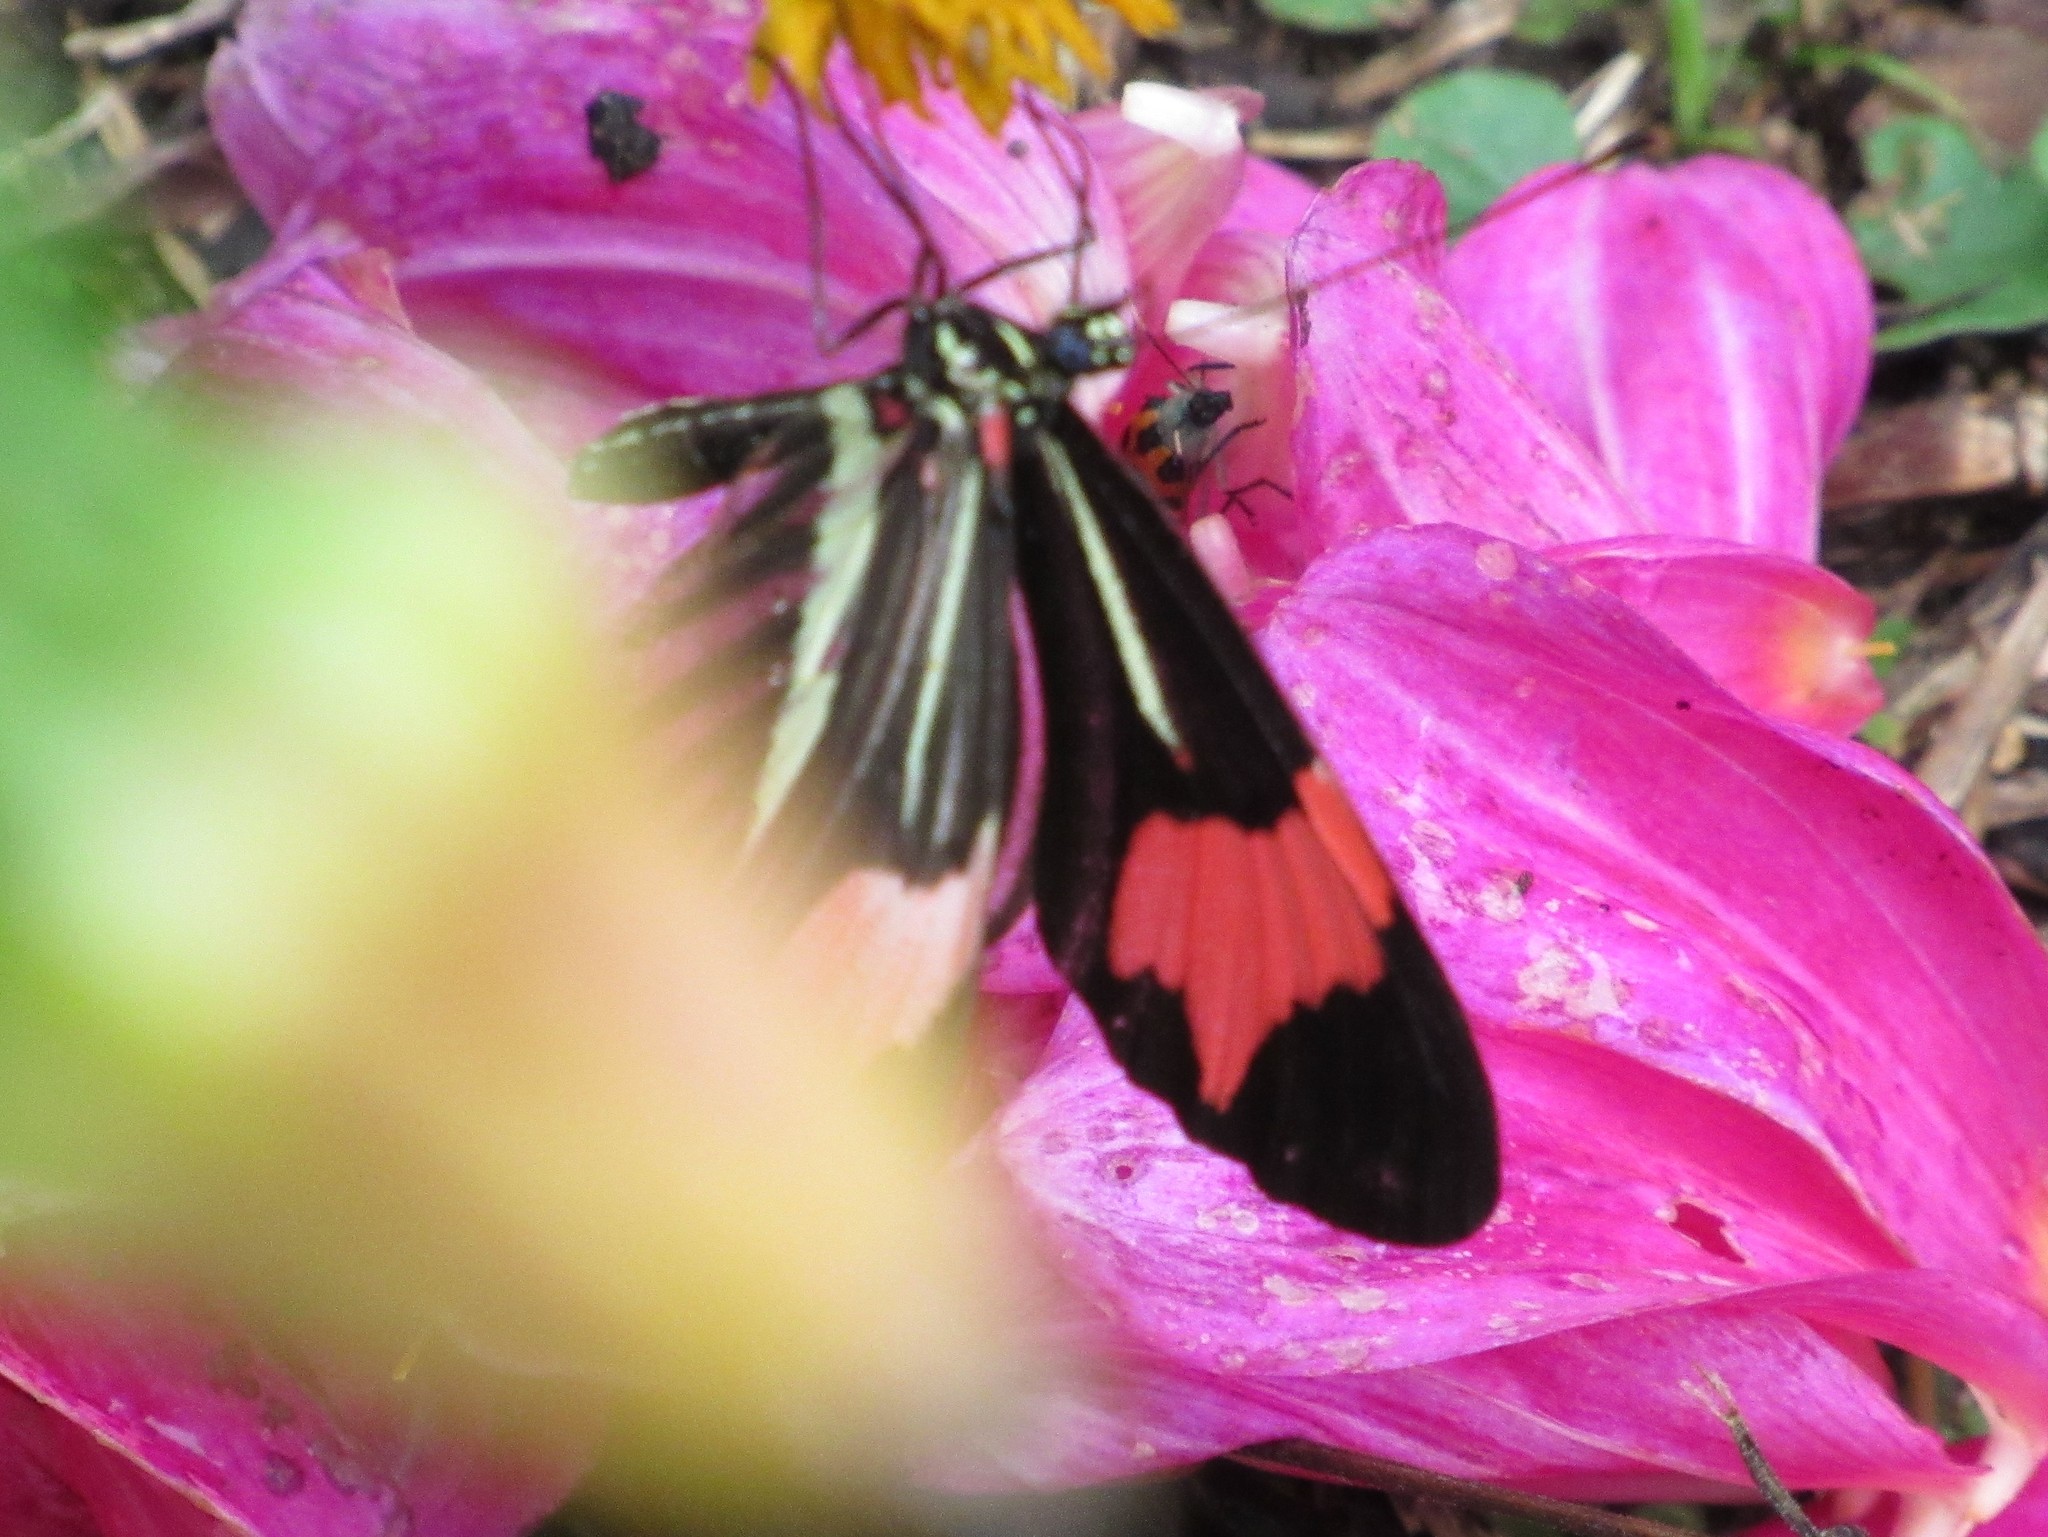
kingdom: Animalia
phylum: Arthropoda
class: Insecta
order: Lepidoptera
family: Nymphalidae
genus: Heliconius
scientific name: Heliconius besckei
